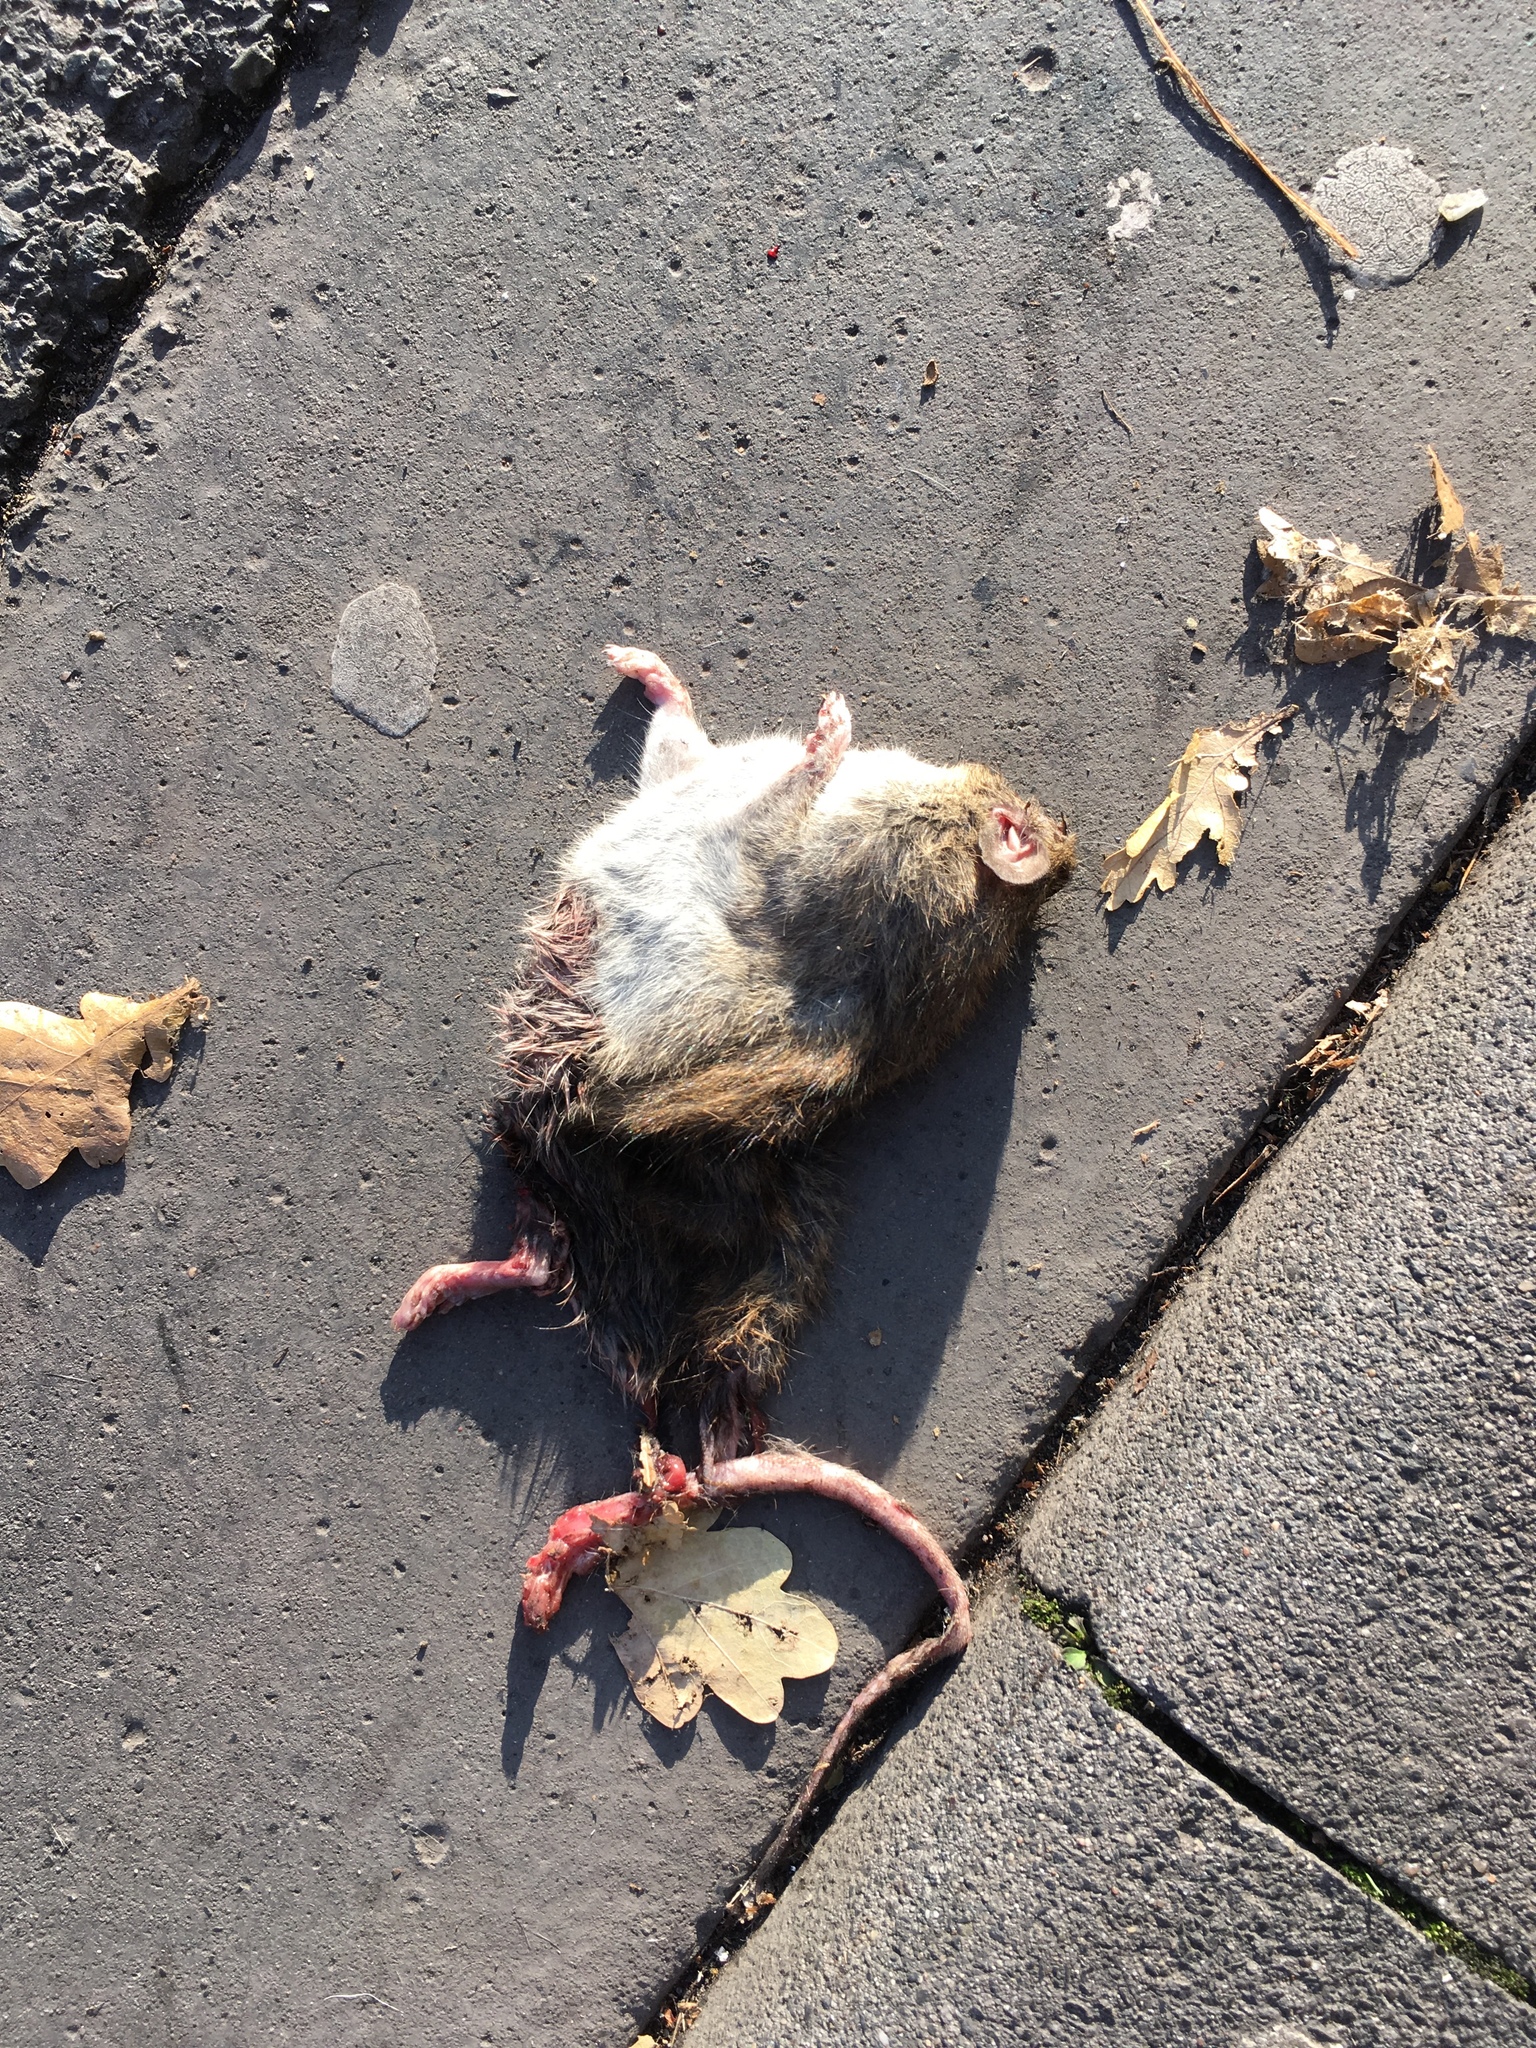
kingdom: Animalia
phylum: Chordata
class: Mammalia
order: Rodentia
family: Muridae
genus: Rattus
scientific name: Rattus norvegicus
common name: Brown rat
